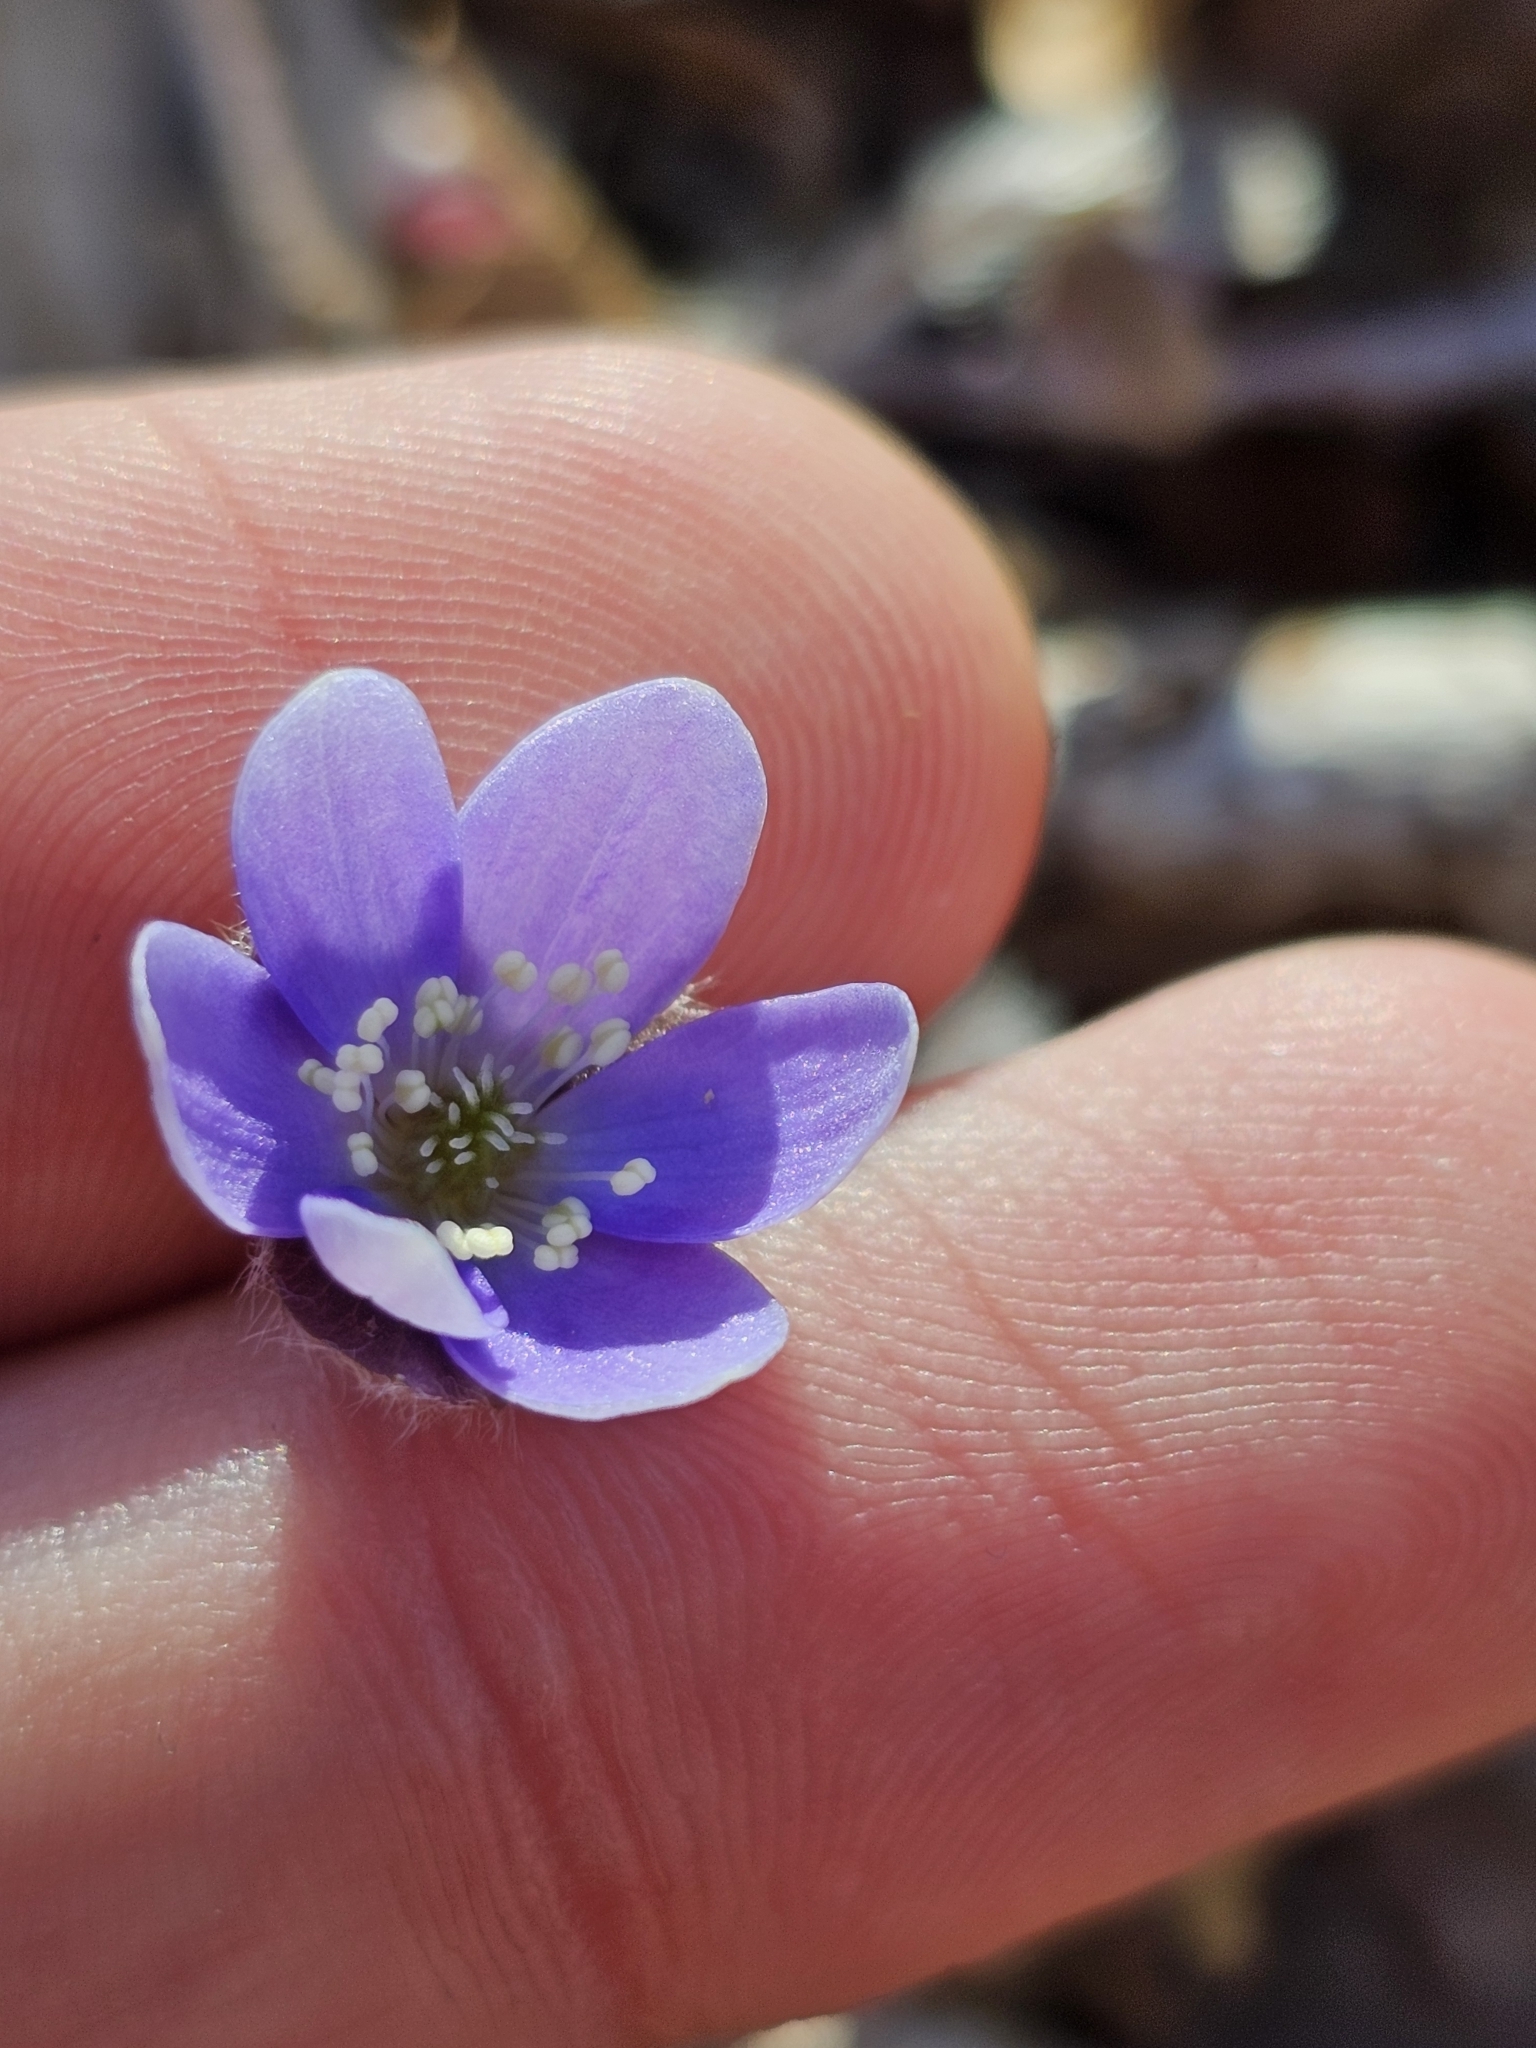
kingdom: Plantae
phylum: Tracheophyta
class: Magnoliopsida
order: Ranunculales
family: Ranunculaceae
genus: Hepatica
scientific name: Hepatica americana
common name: American hepatica
